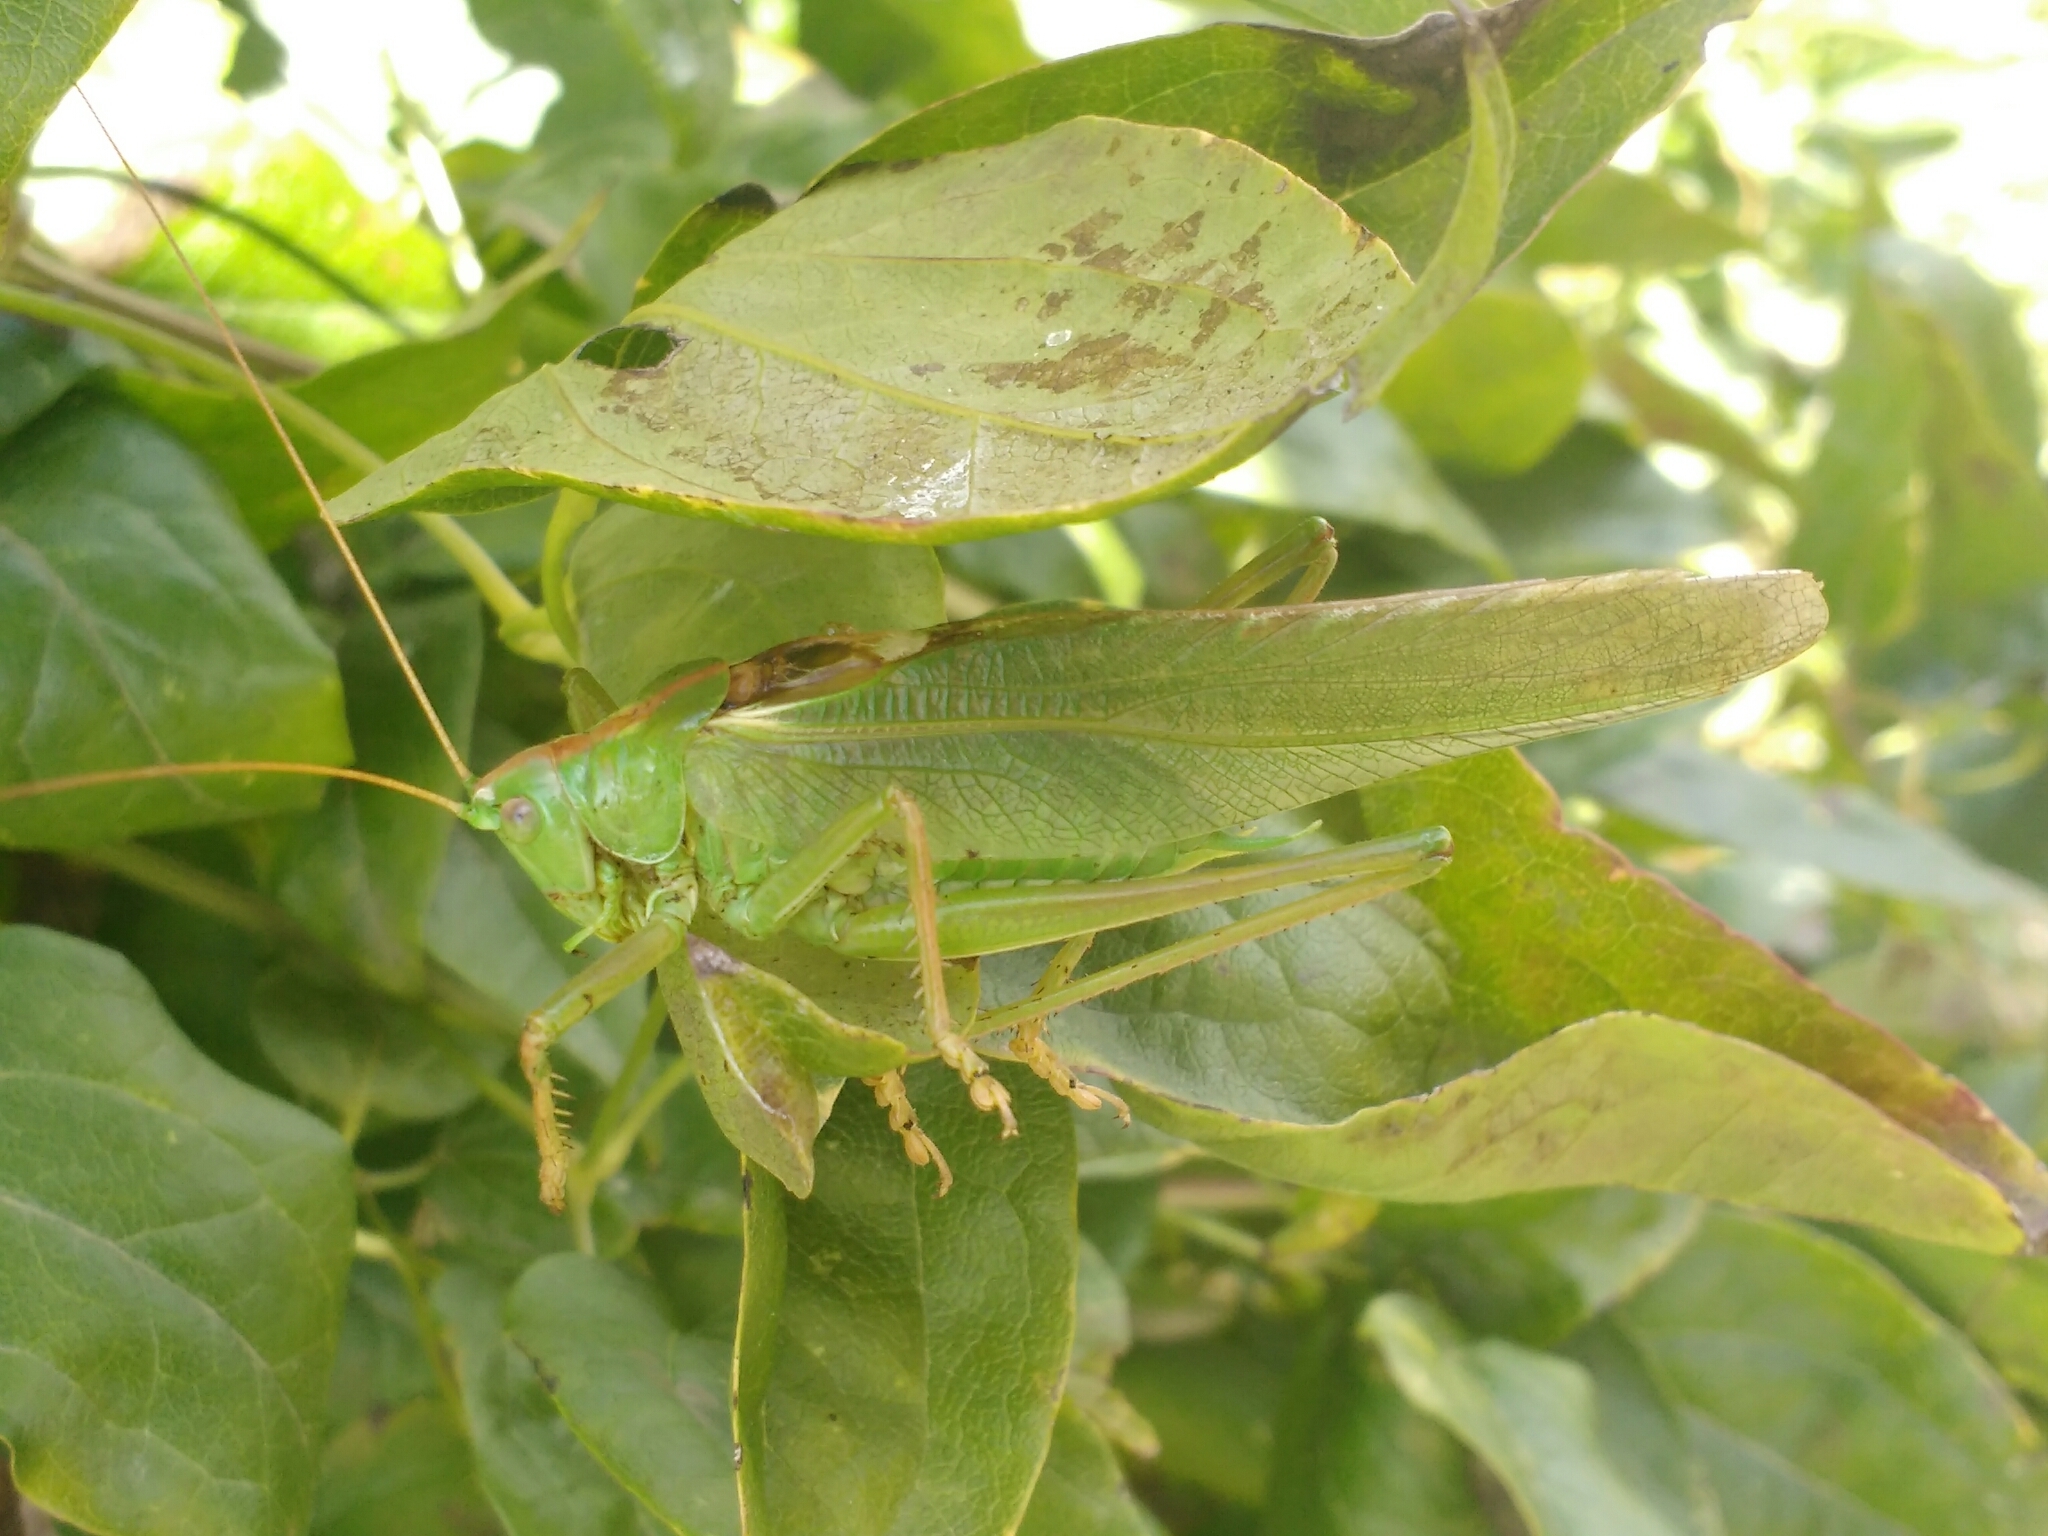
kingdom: Animalia
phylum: Arthropoda
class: Insecta
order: Orthoptera
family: Tettigoniidae
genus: Tettigonia
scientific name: Tettigonia viridissima
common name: Great green bush-cricket
